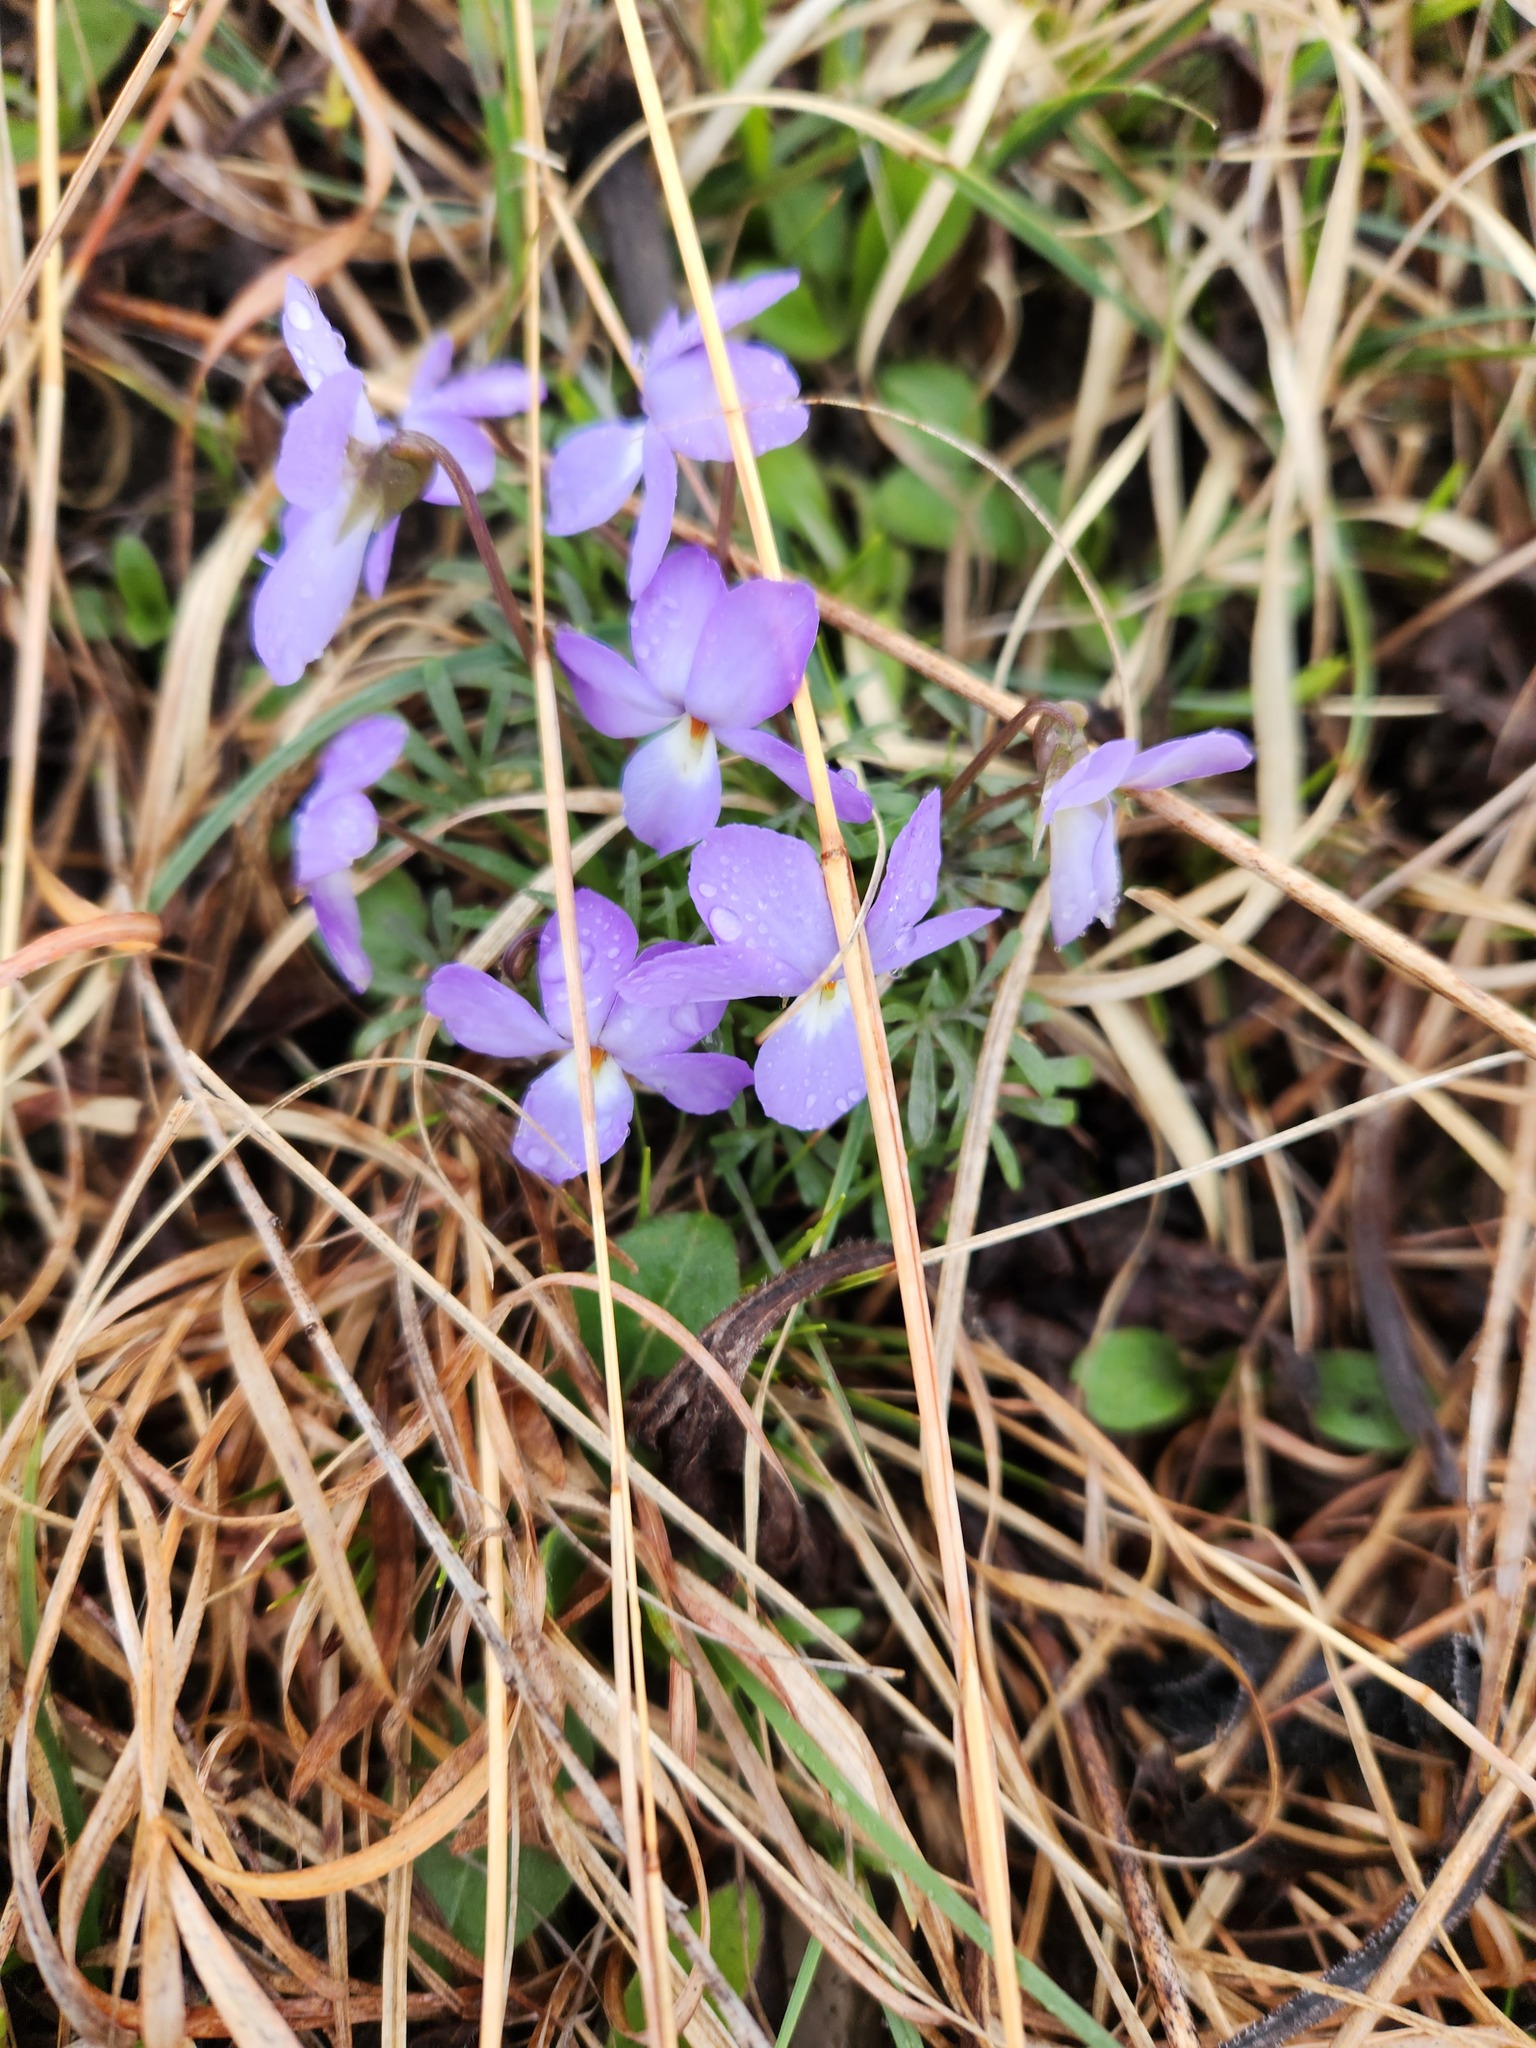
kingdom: Plantae
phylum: Tracheophyta
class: Magnoliopsida
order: Malpighiales
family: Violaceae
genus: Viola
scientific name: Viola pedata
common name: Pansy violet
